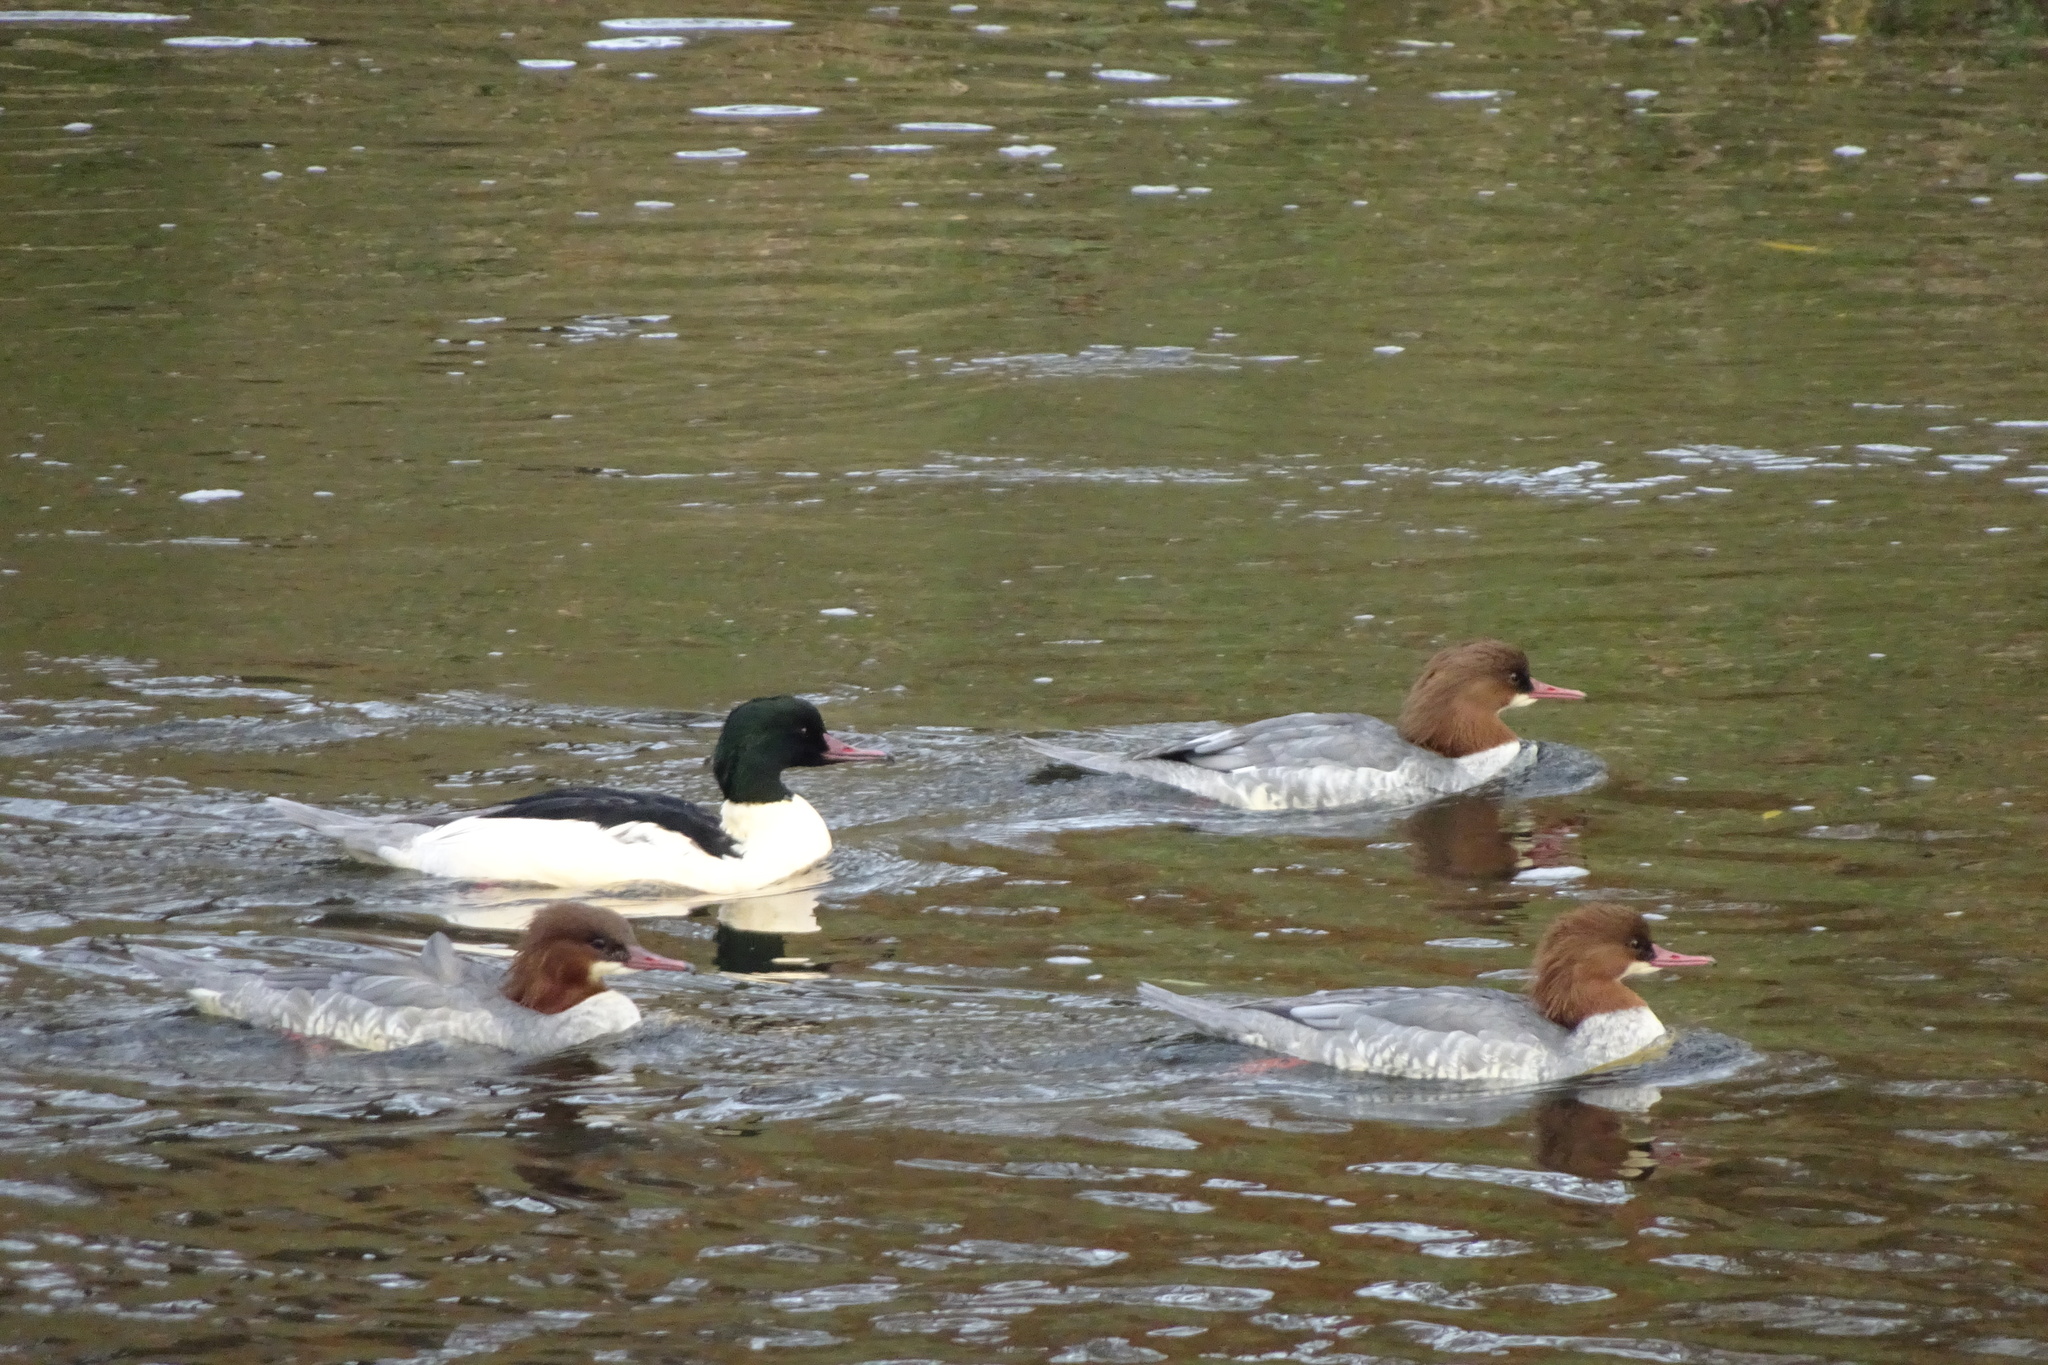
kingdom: Animalia
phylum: Chordata
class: Aves
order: Anseriformes
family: Anatidae
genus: Mergus
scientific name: Mergus merganser
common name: Common merganser
